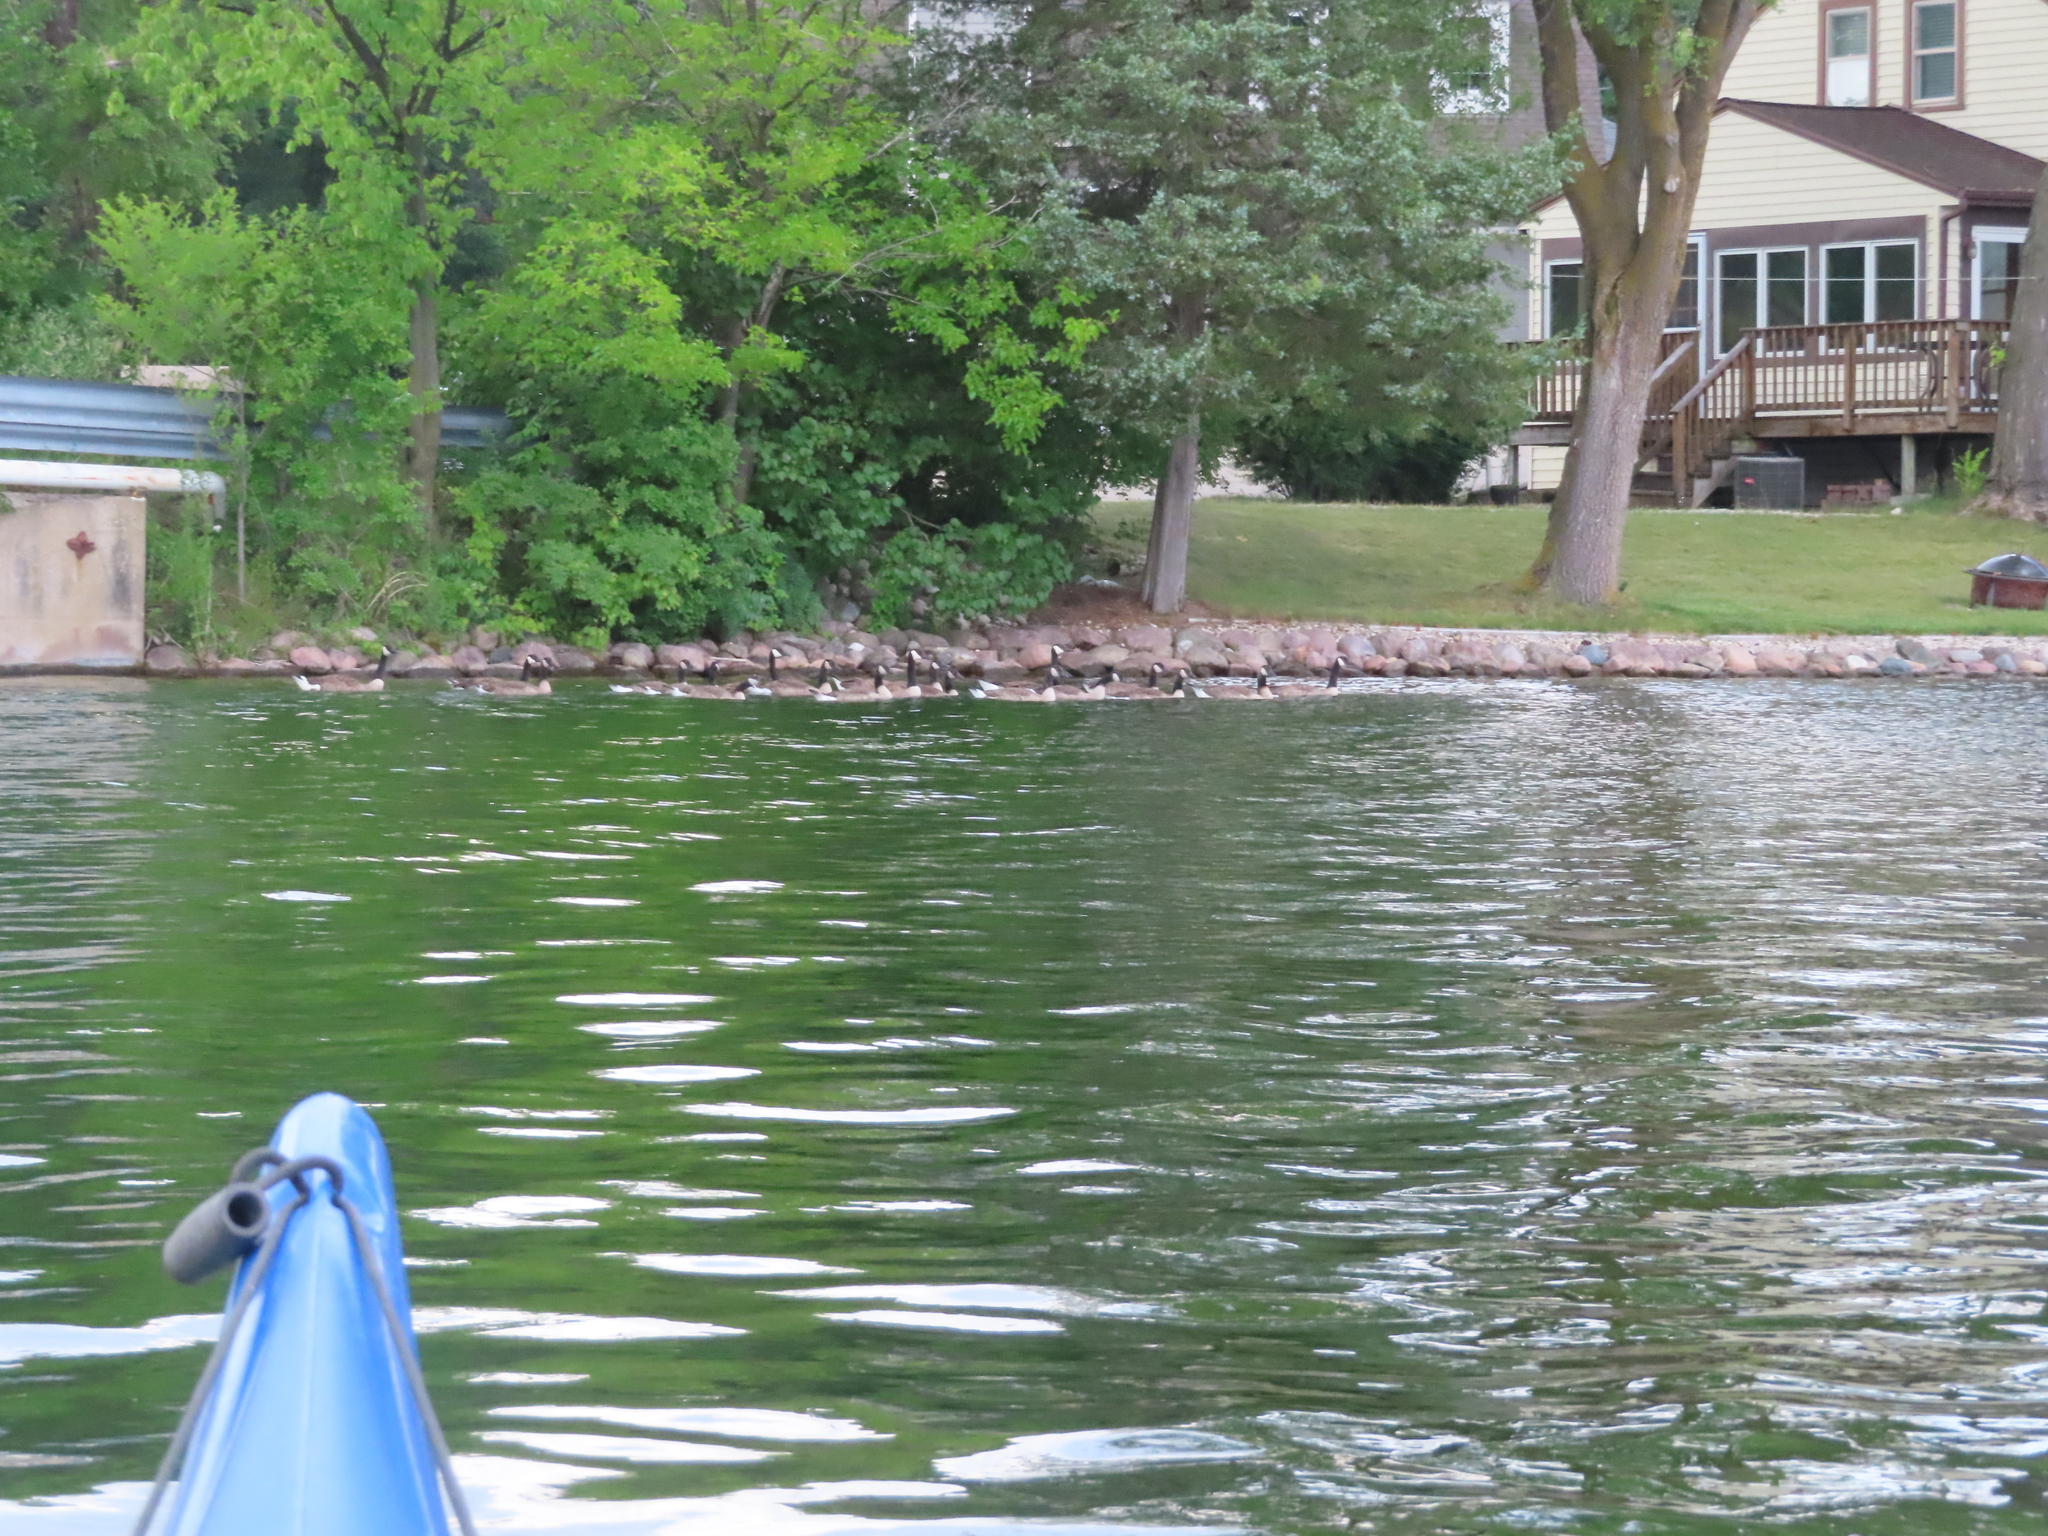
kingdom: Animalia
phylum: Chordata
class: Aves
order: Anseriformes
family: Anatidae
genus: Branta
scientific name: Branta canadensis
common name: Canada goose
